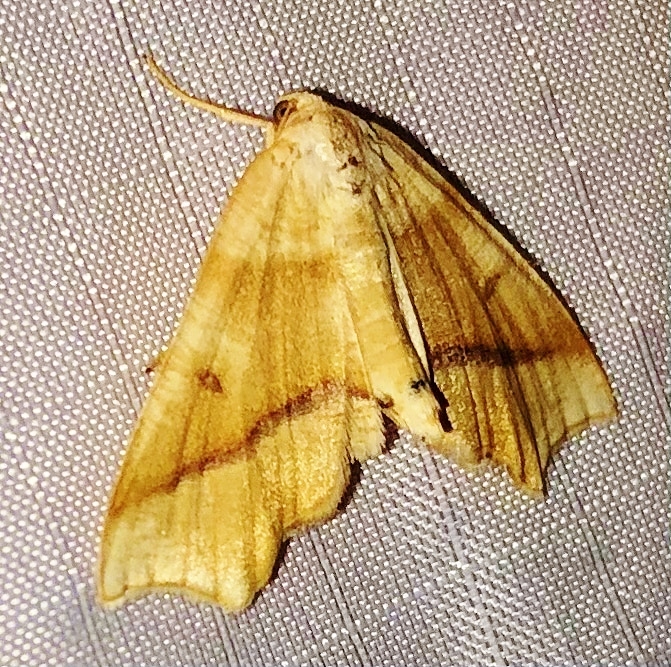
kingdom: Animalia
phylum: Arthropoda
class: Insecta
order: Lepidoptera
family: Geometridae
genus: Plagodis
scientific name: Plagodis alcoolaria
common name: Hollow-spotted plagodis
